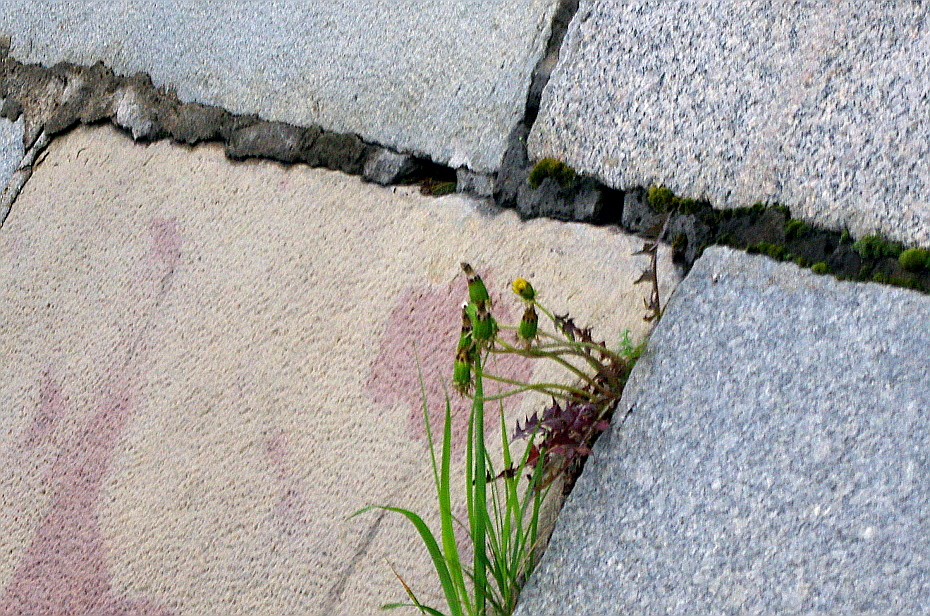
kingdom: Plantae
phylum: Tracheophyta
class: Magnoliopsida
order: Asterales
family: Asteraceae
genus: Taraxacum
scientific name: Taraxacum officinale
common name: Common dandelion
